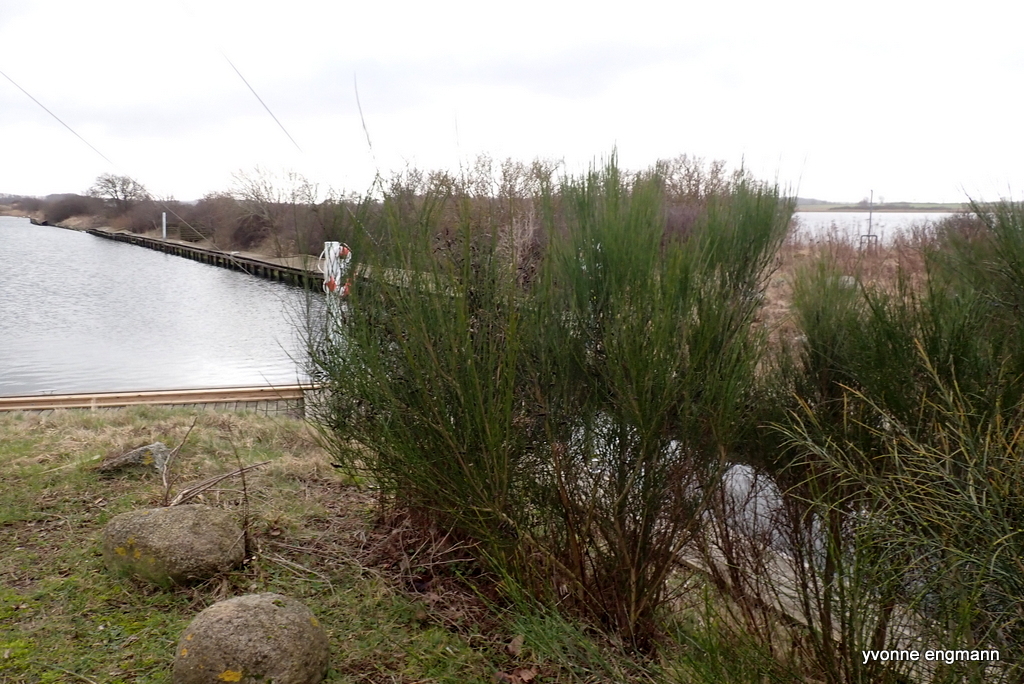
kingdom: Plantae
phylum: Tracheophyta
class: Magnoliopsida
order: Fabales
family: Fabaceae
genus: Cytisus
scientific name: Cytisus scoparius
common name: Scotch broom
